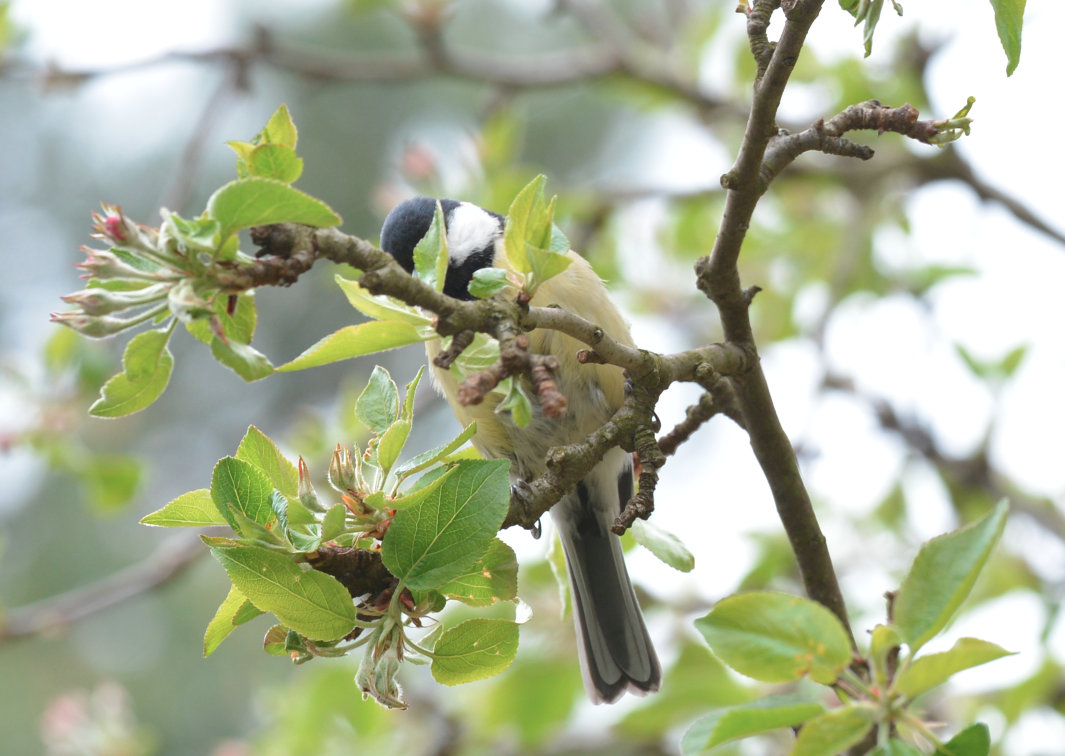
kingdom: Animalia
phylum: Chordata
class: Aves
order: Passeriformes
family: Paridae
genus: Parus
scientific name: Parus major
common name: Great tit
